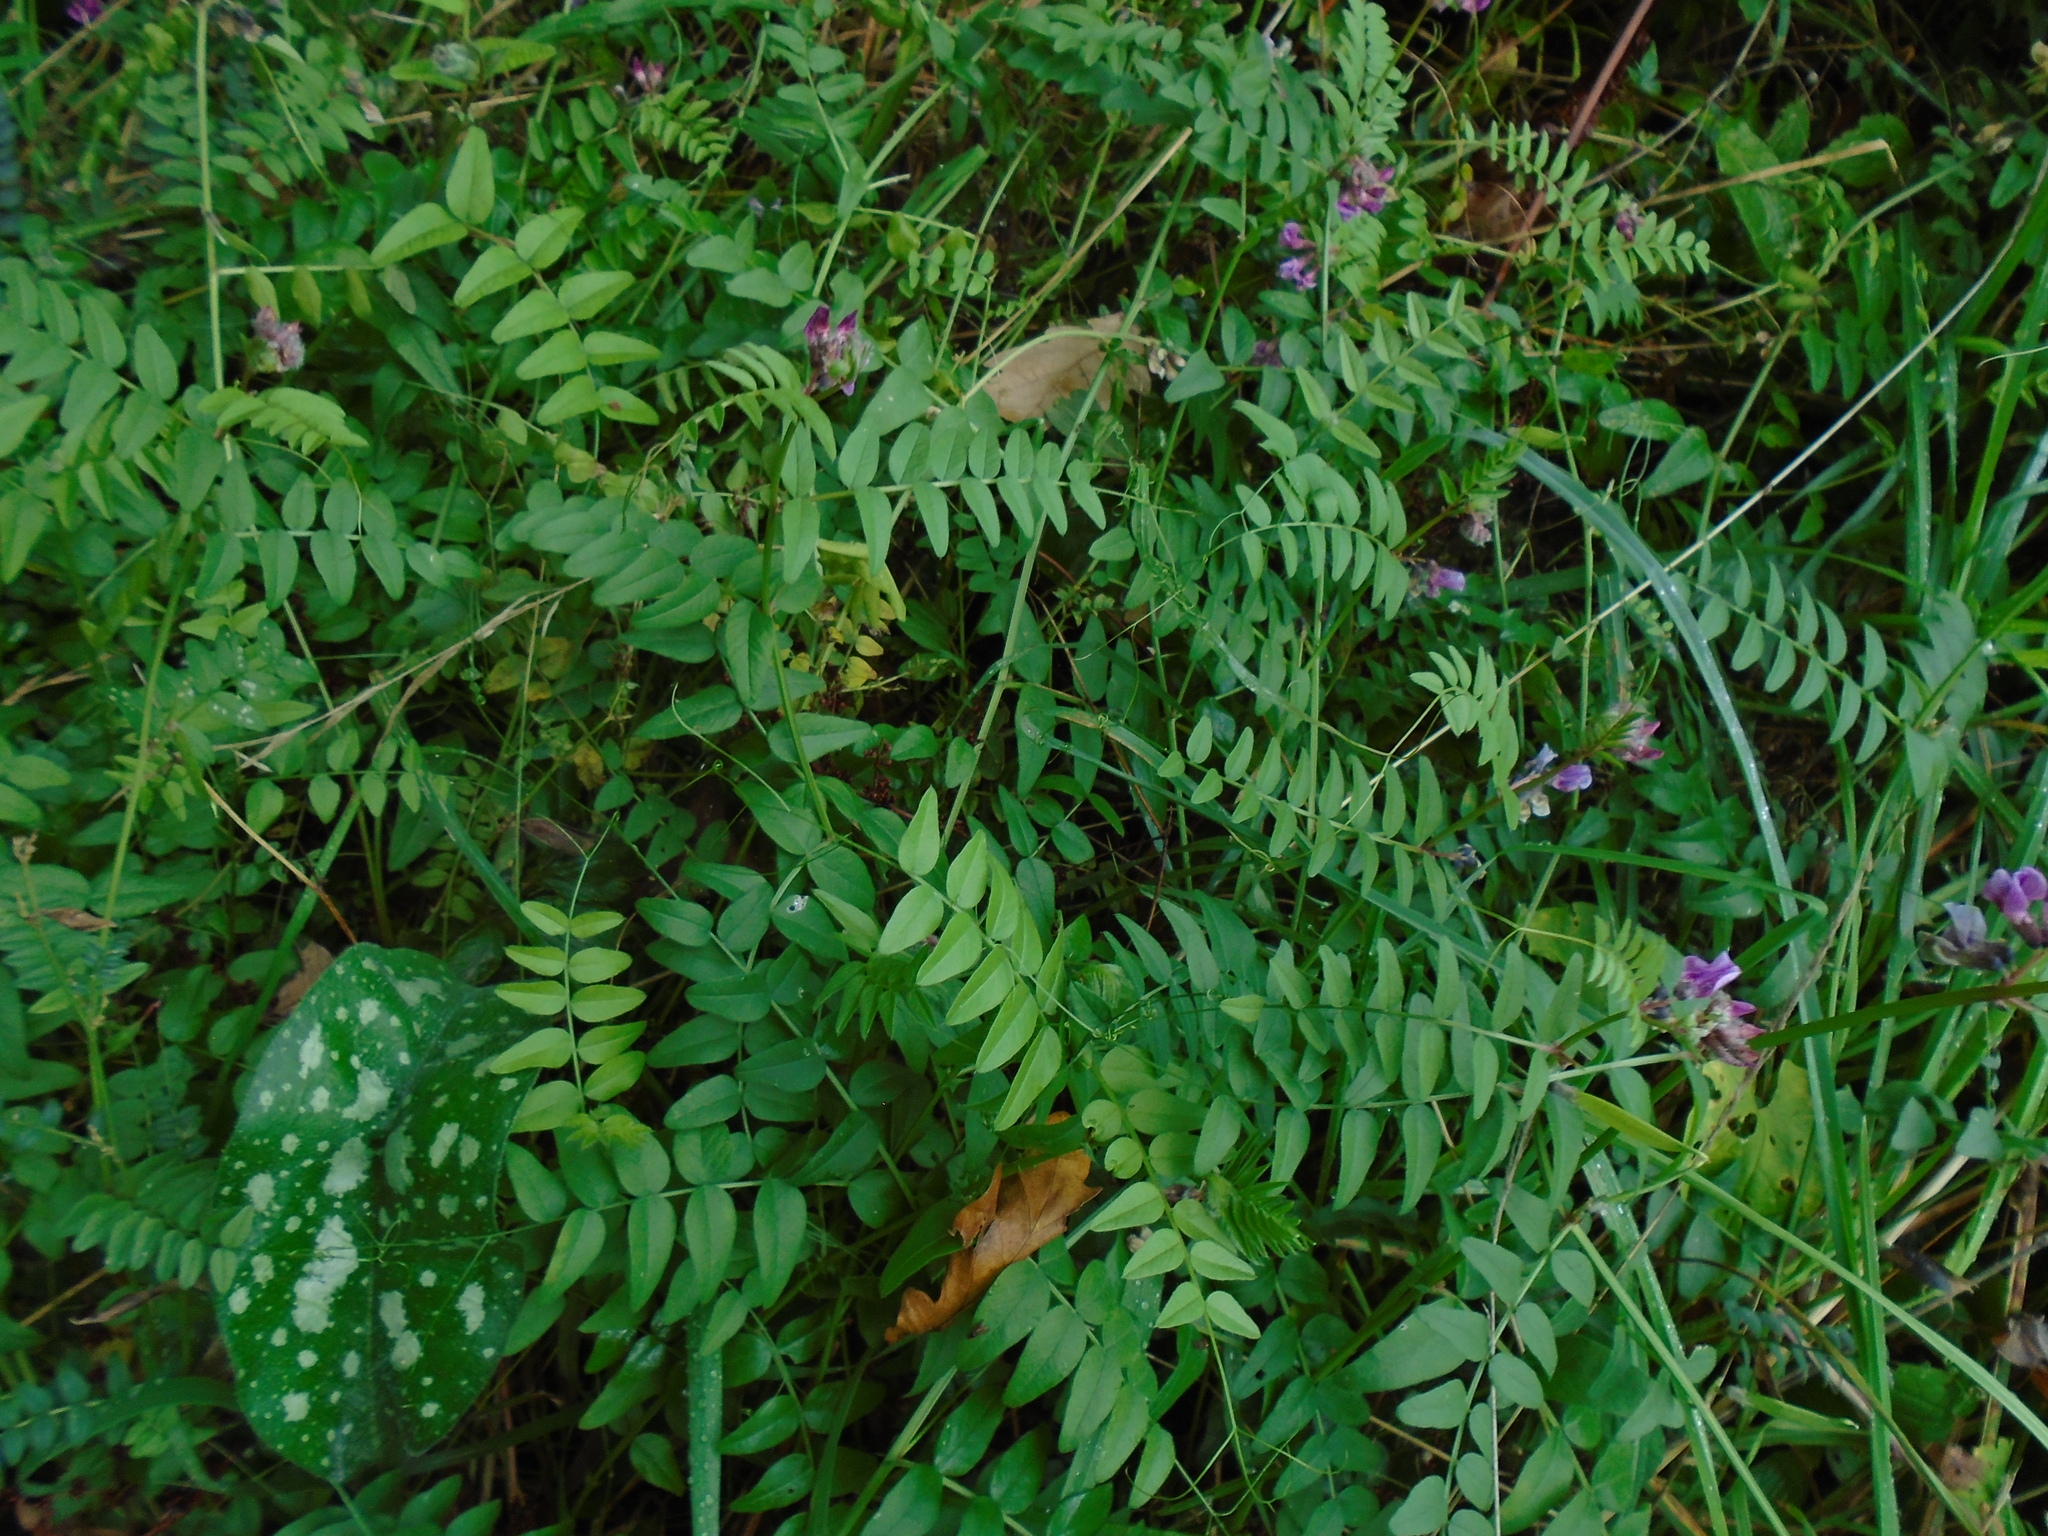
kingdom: Plantae
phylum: Tracheophyta
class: Magnoliopsida
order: Fabales
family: Fabaceae
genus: Vicia
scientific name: Vicia sepium
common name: Bush vetch
